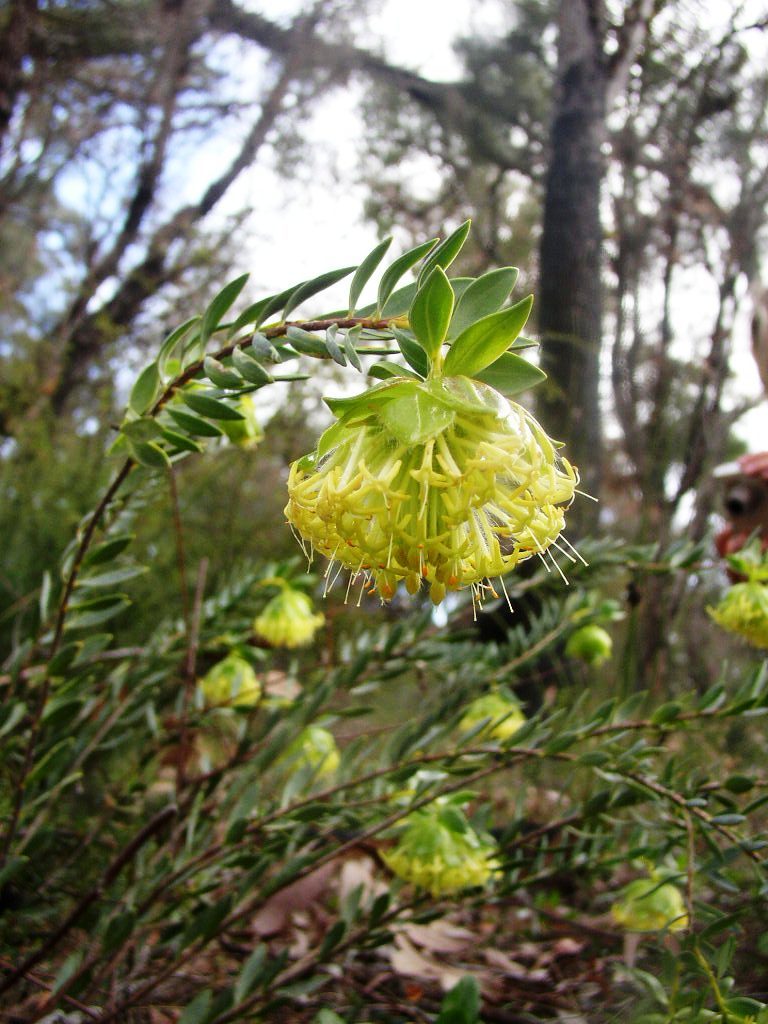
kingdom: Plantae
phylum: Tracheophyta
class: Magnoliopsida
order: Malvales
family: Thymelaeaceae
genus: Pimelea
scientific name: Pimelea suaveolens
